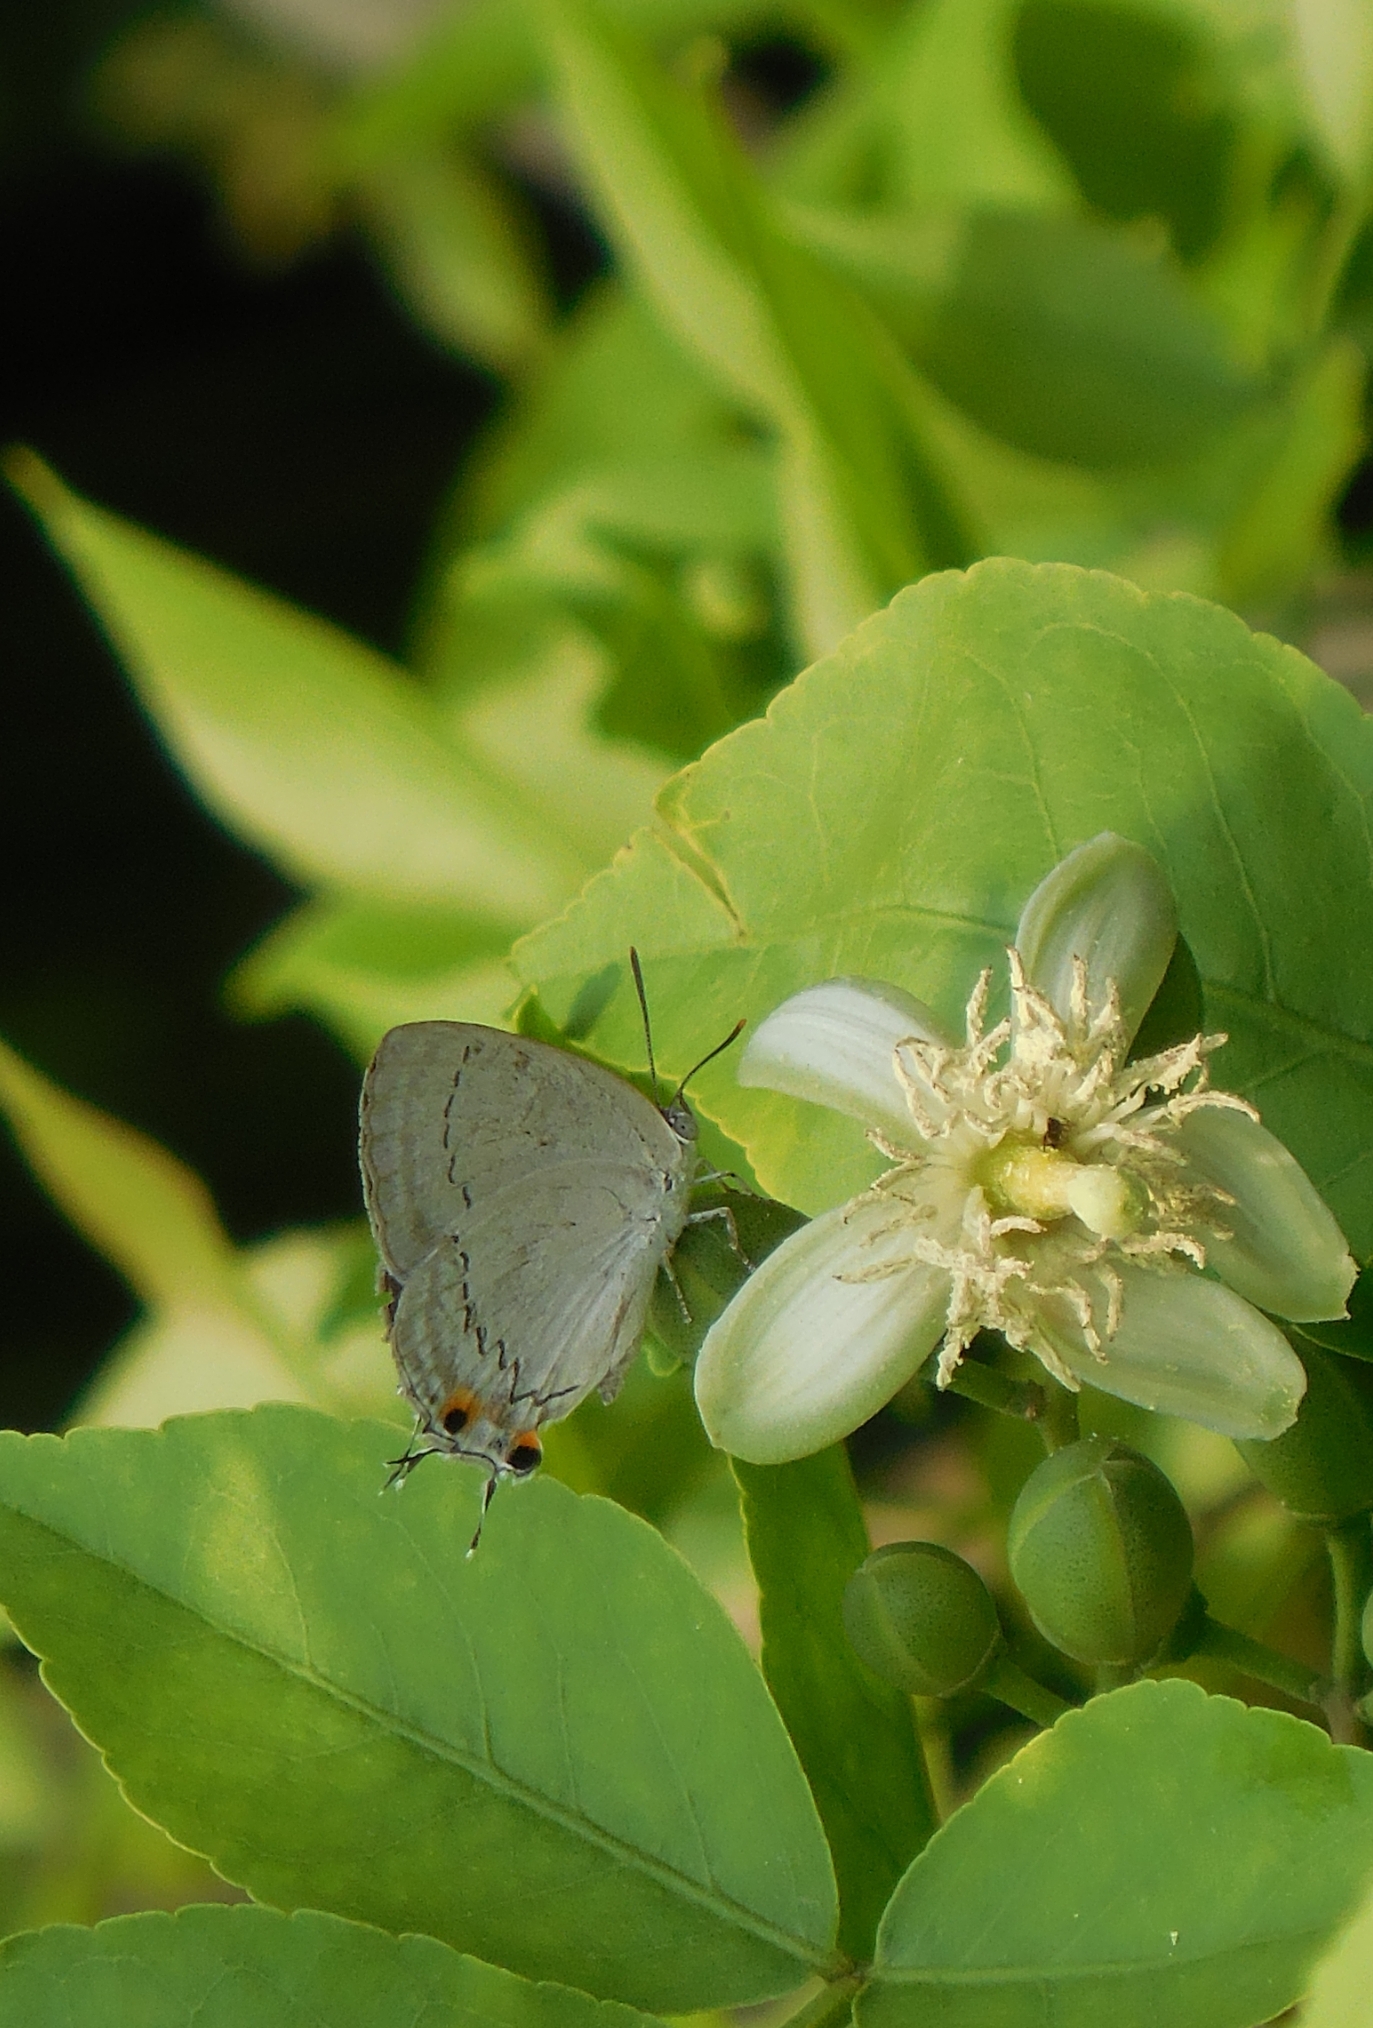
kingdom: Animalia
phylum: Arthropoda
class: Insecta
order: Lepidoptera
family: Lycaenidae
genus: Pratapa
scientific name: Pratapa deva
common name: White royal
